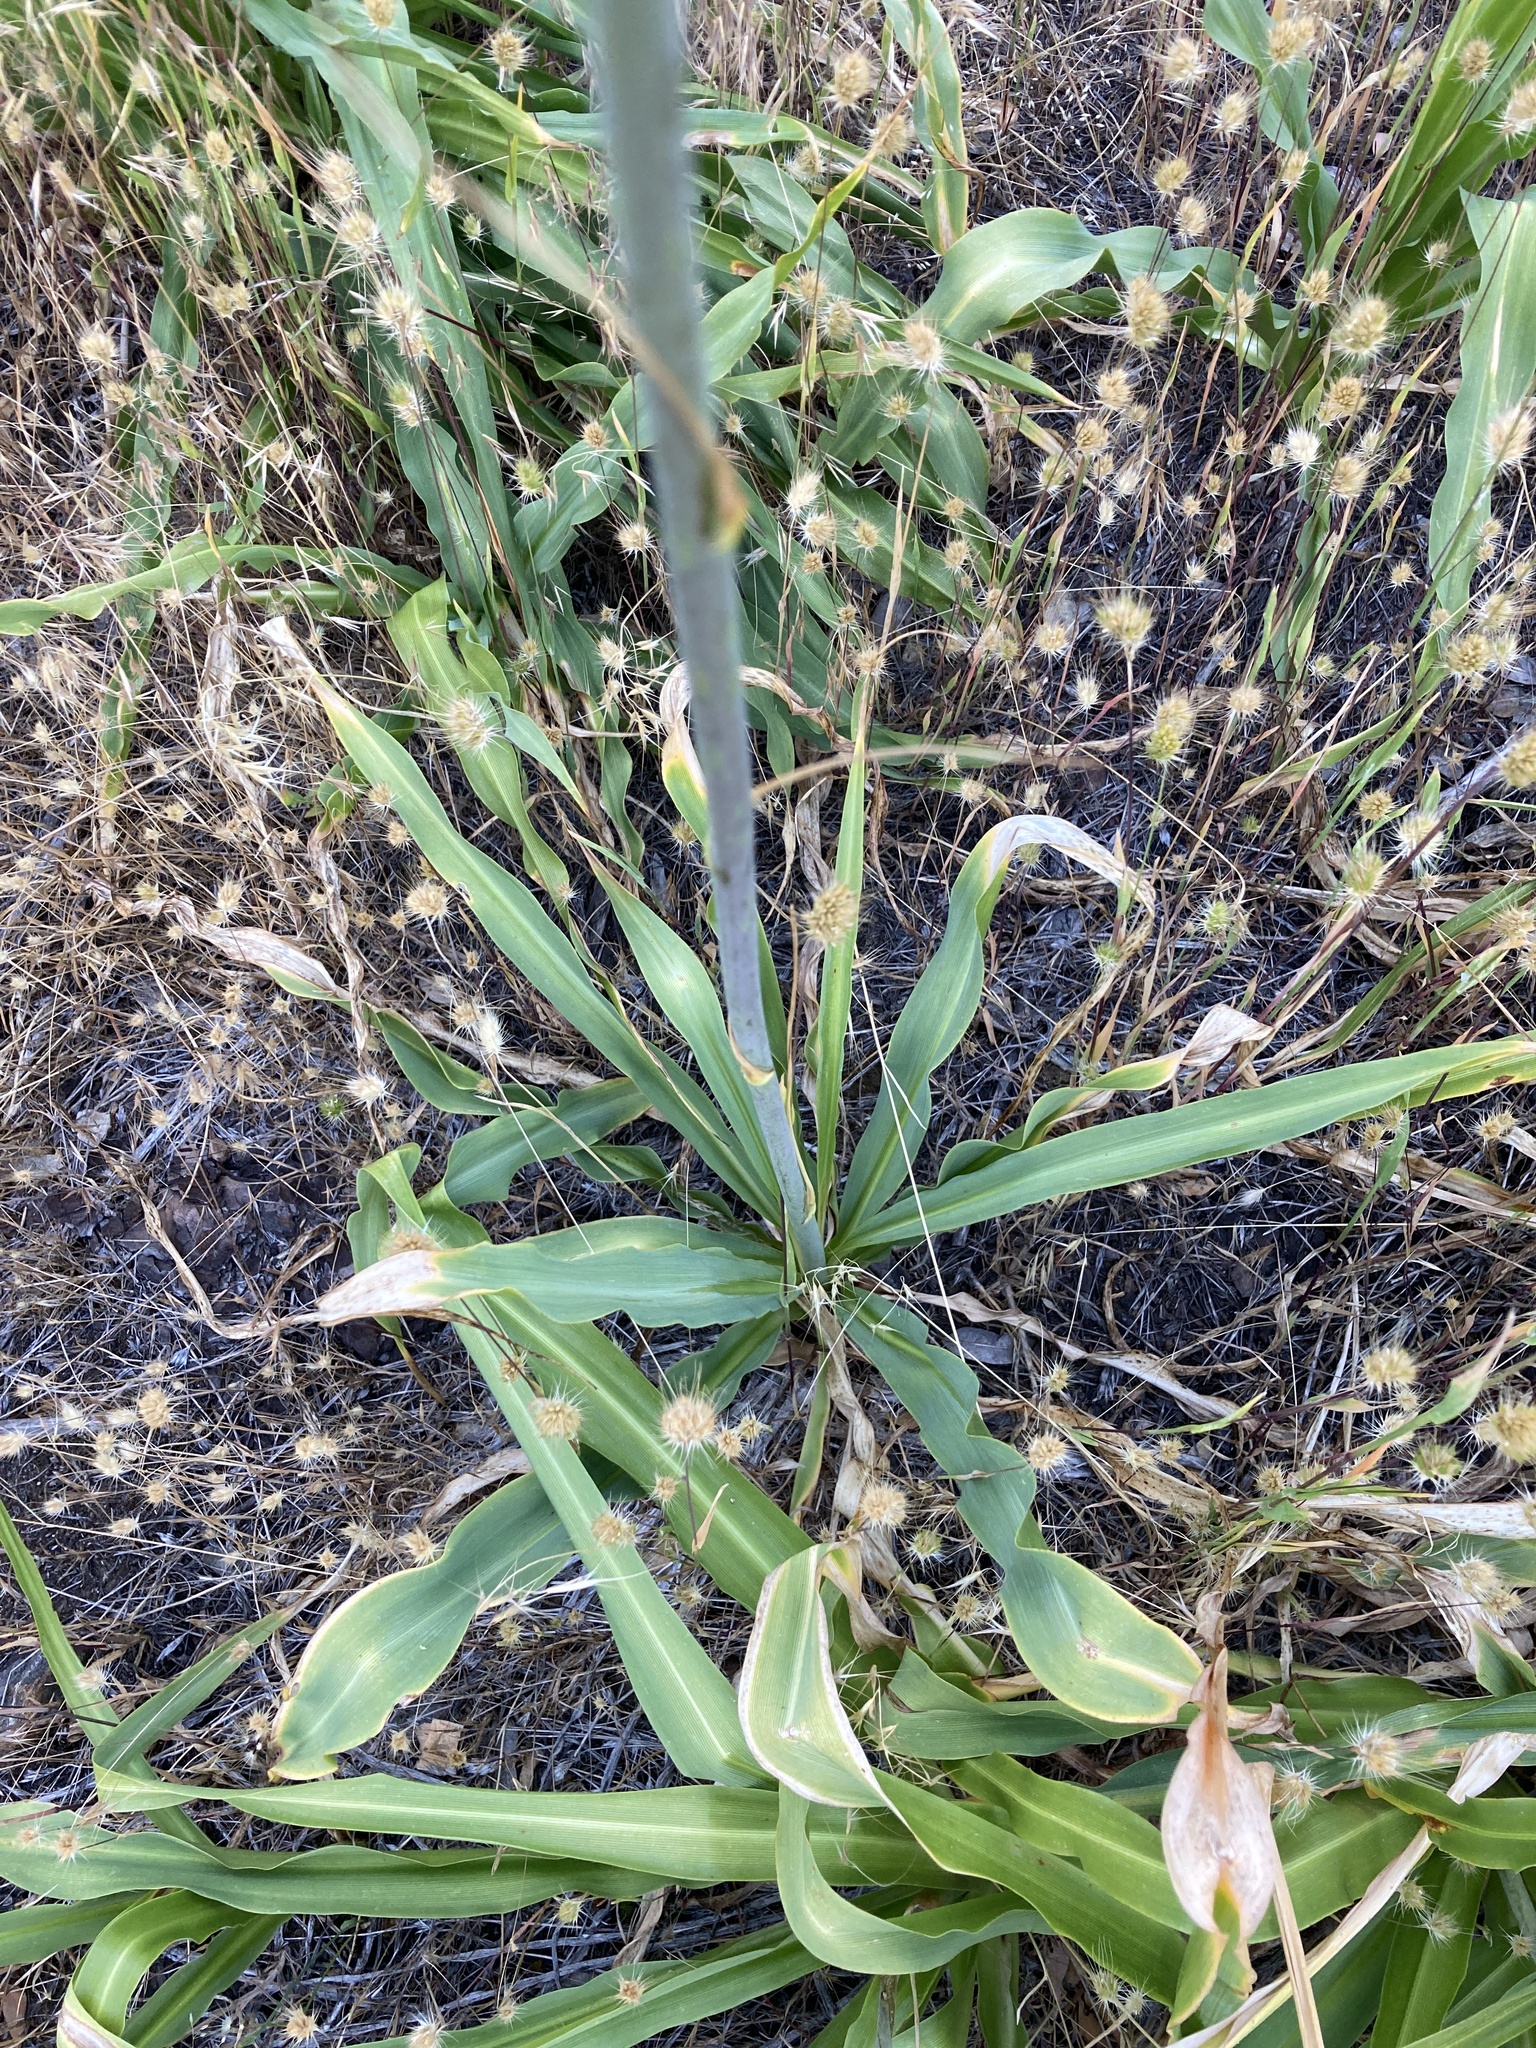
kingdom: Plantae
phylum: Tracheophyta
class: Liliopsida
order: Asparagales
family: Asparagaceae
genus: Chlorogalum
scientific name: Chlorogalum pomeridianum
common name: Amole
